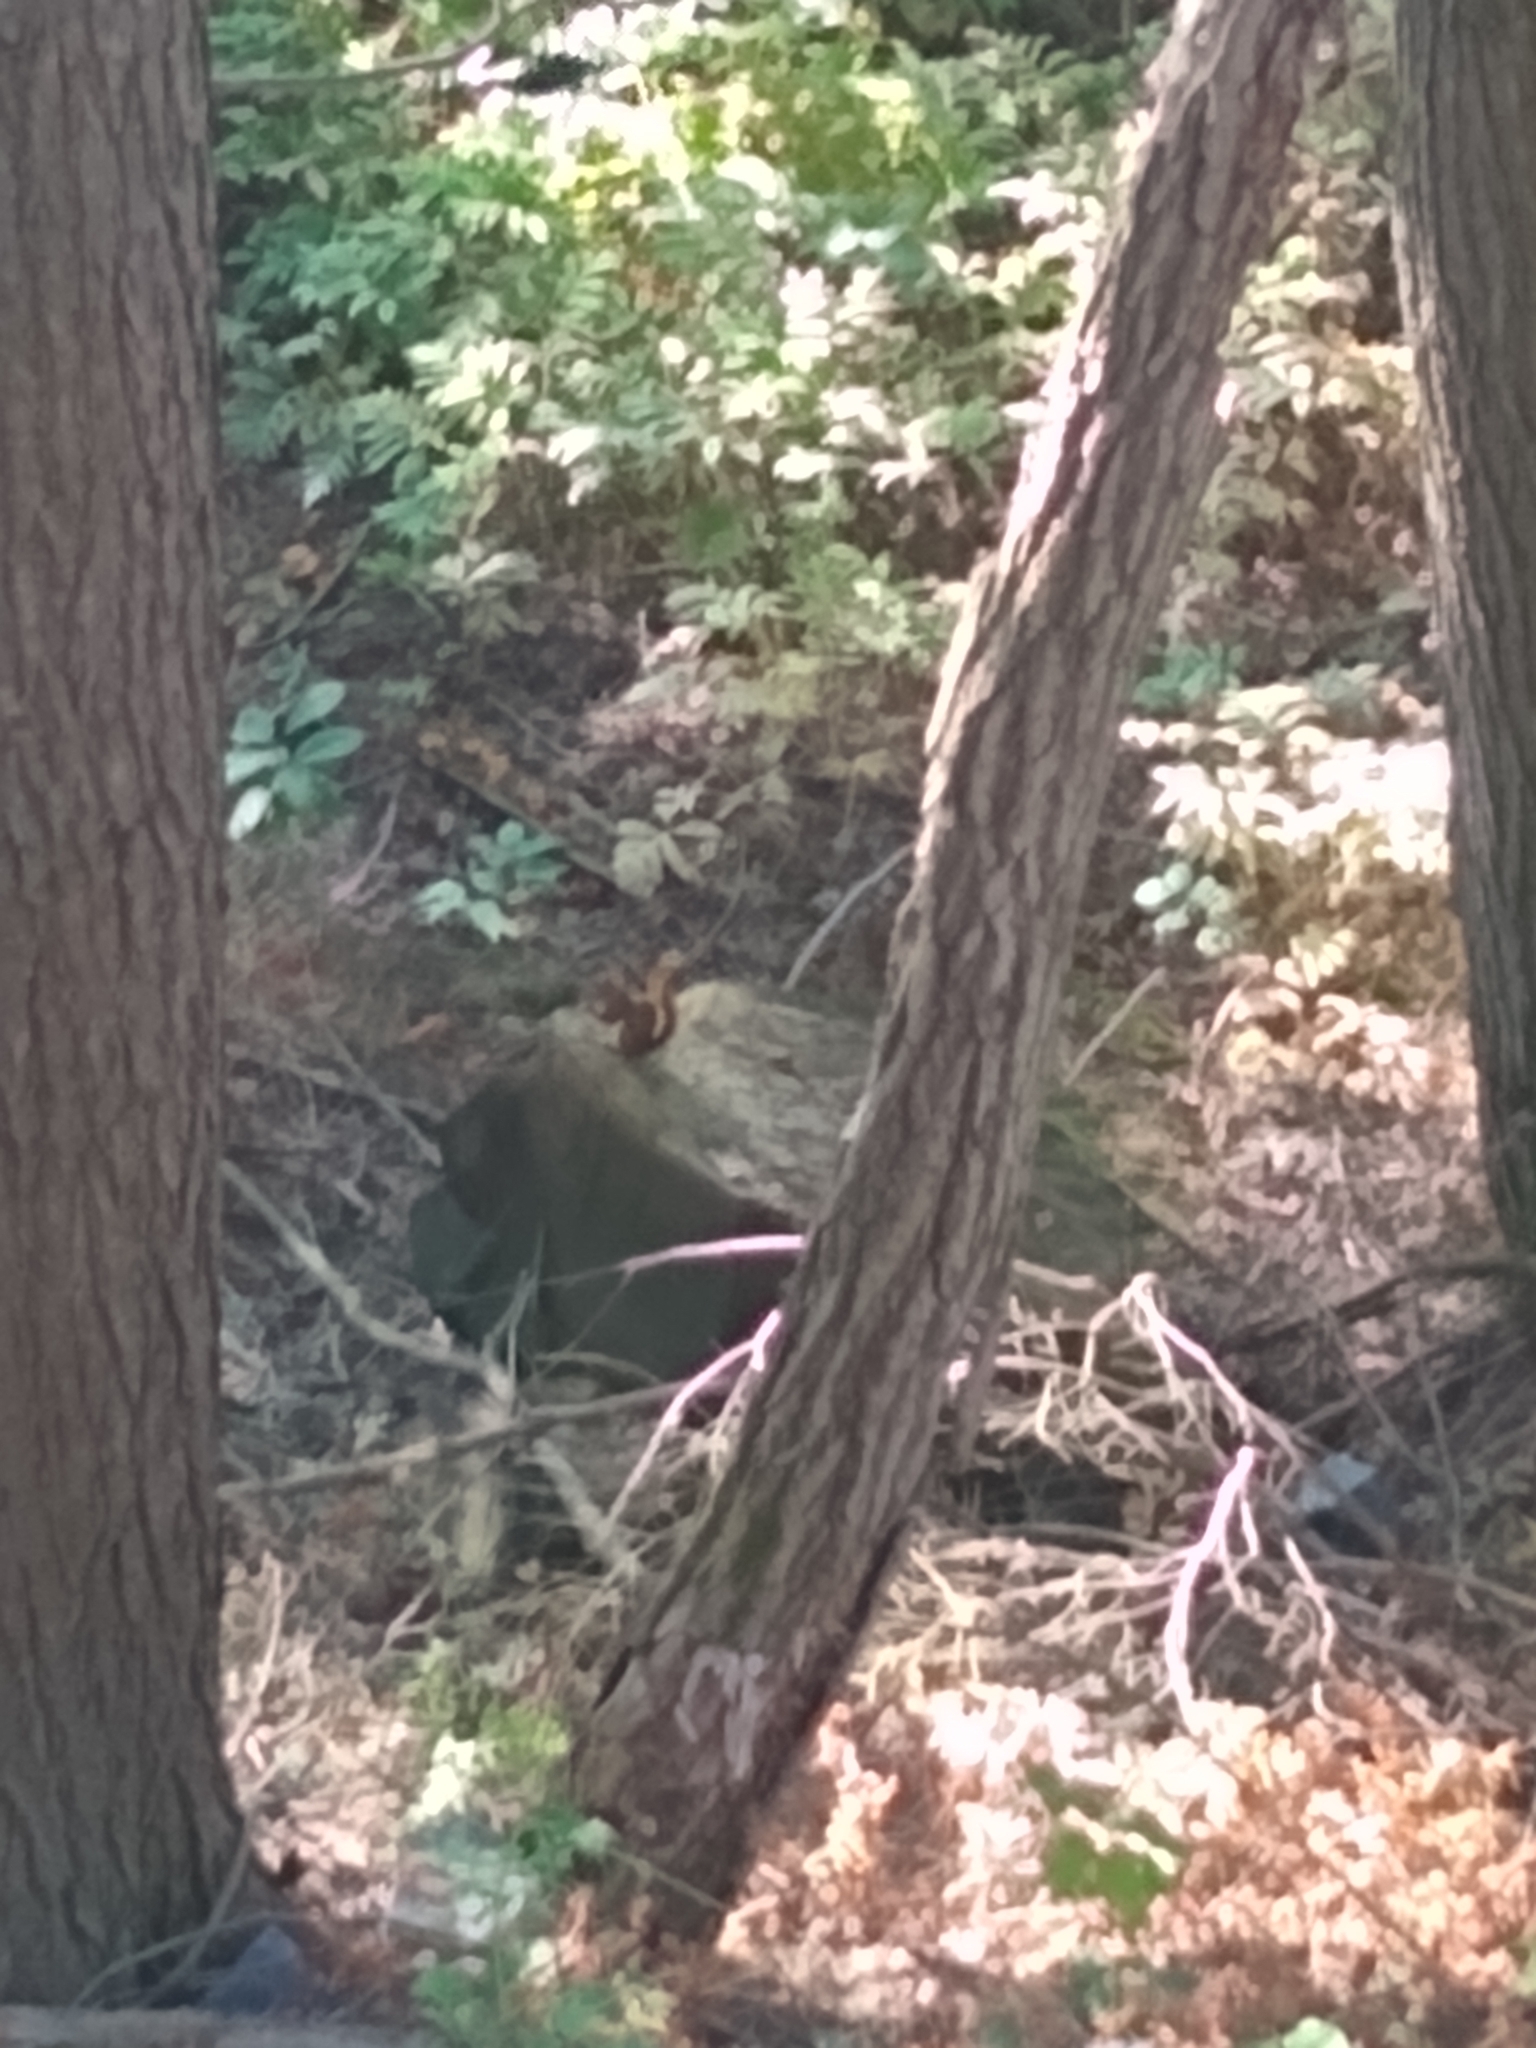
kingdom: Animalia
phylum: Chordata
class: Mammalia
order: Rodentia
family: Sciuridae
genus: Tamiasciurus
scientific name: Tamiasciurus hudsonicus
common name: Red squirrel
